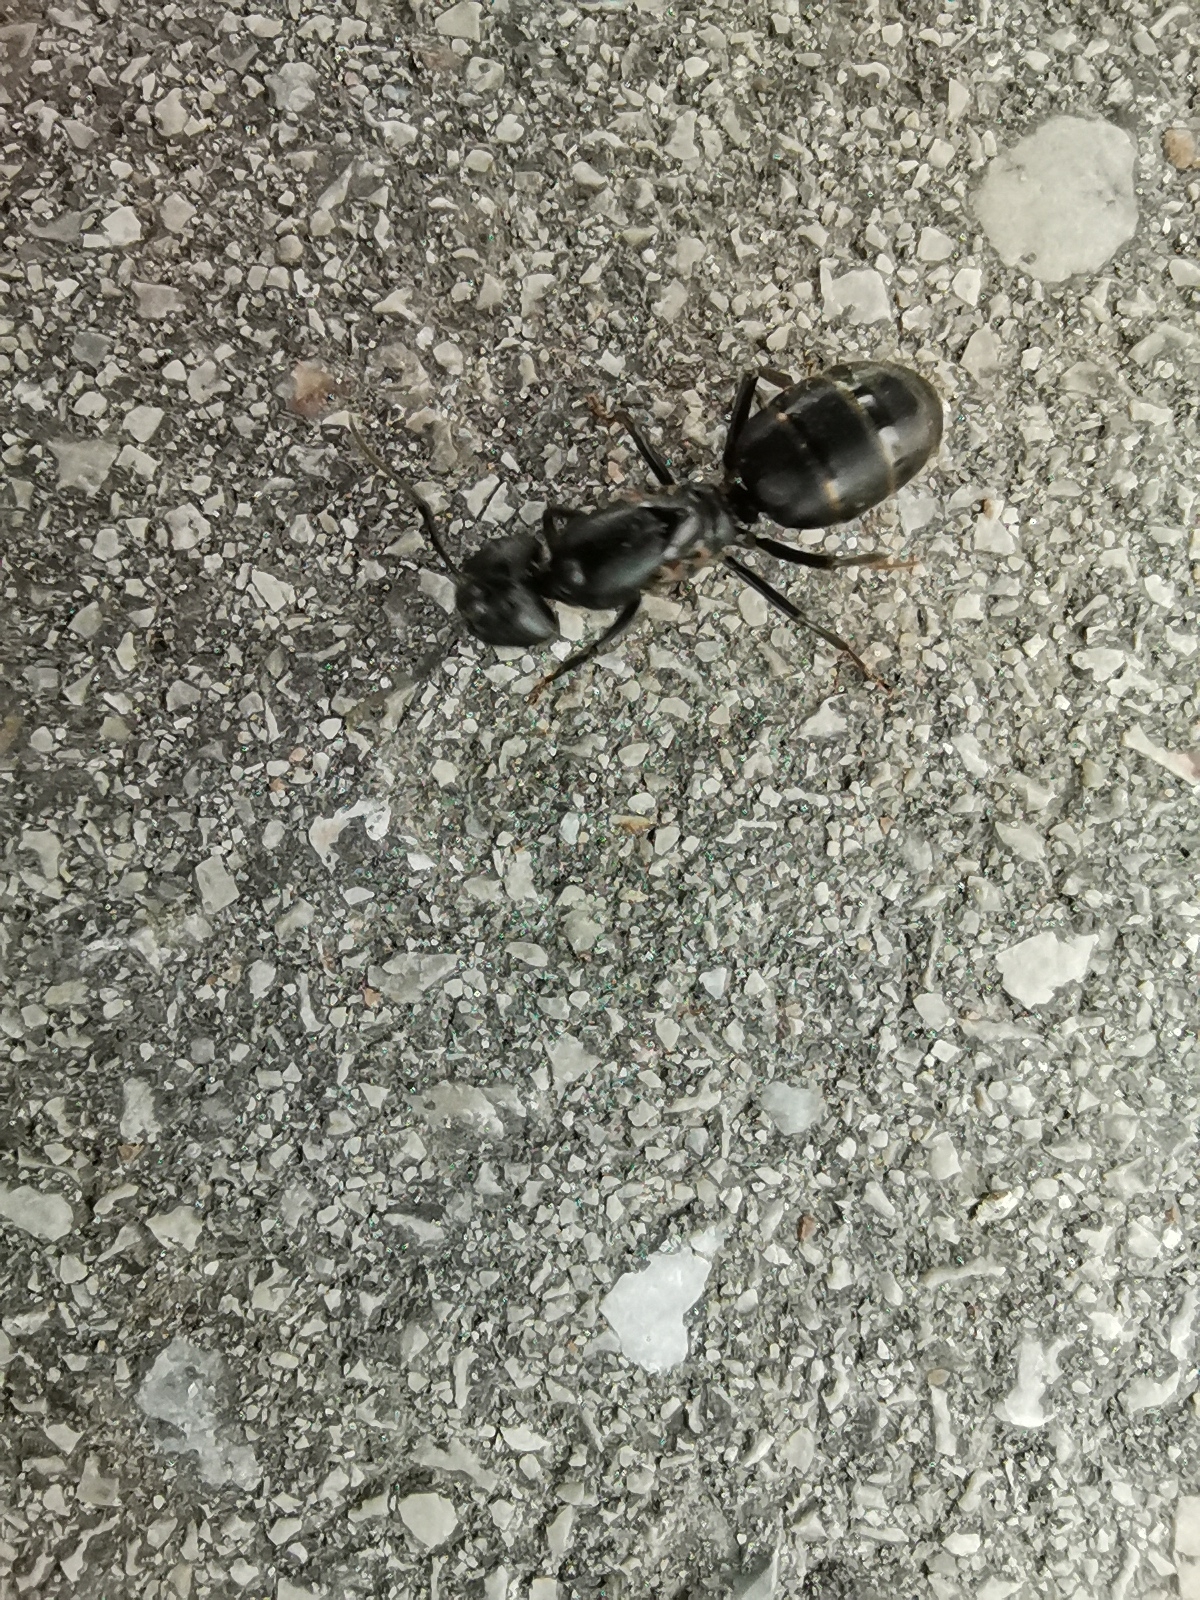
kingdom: Animalia
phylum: Arthropoda
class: Insecta
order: Hymenoptera
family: Formicidae
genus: Camponotus
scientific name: Camponotus vagus
